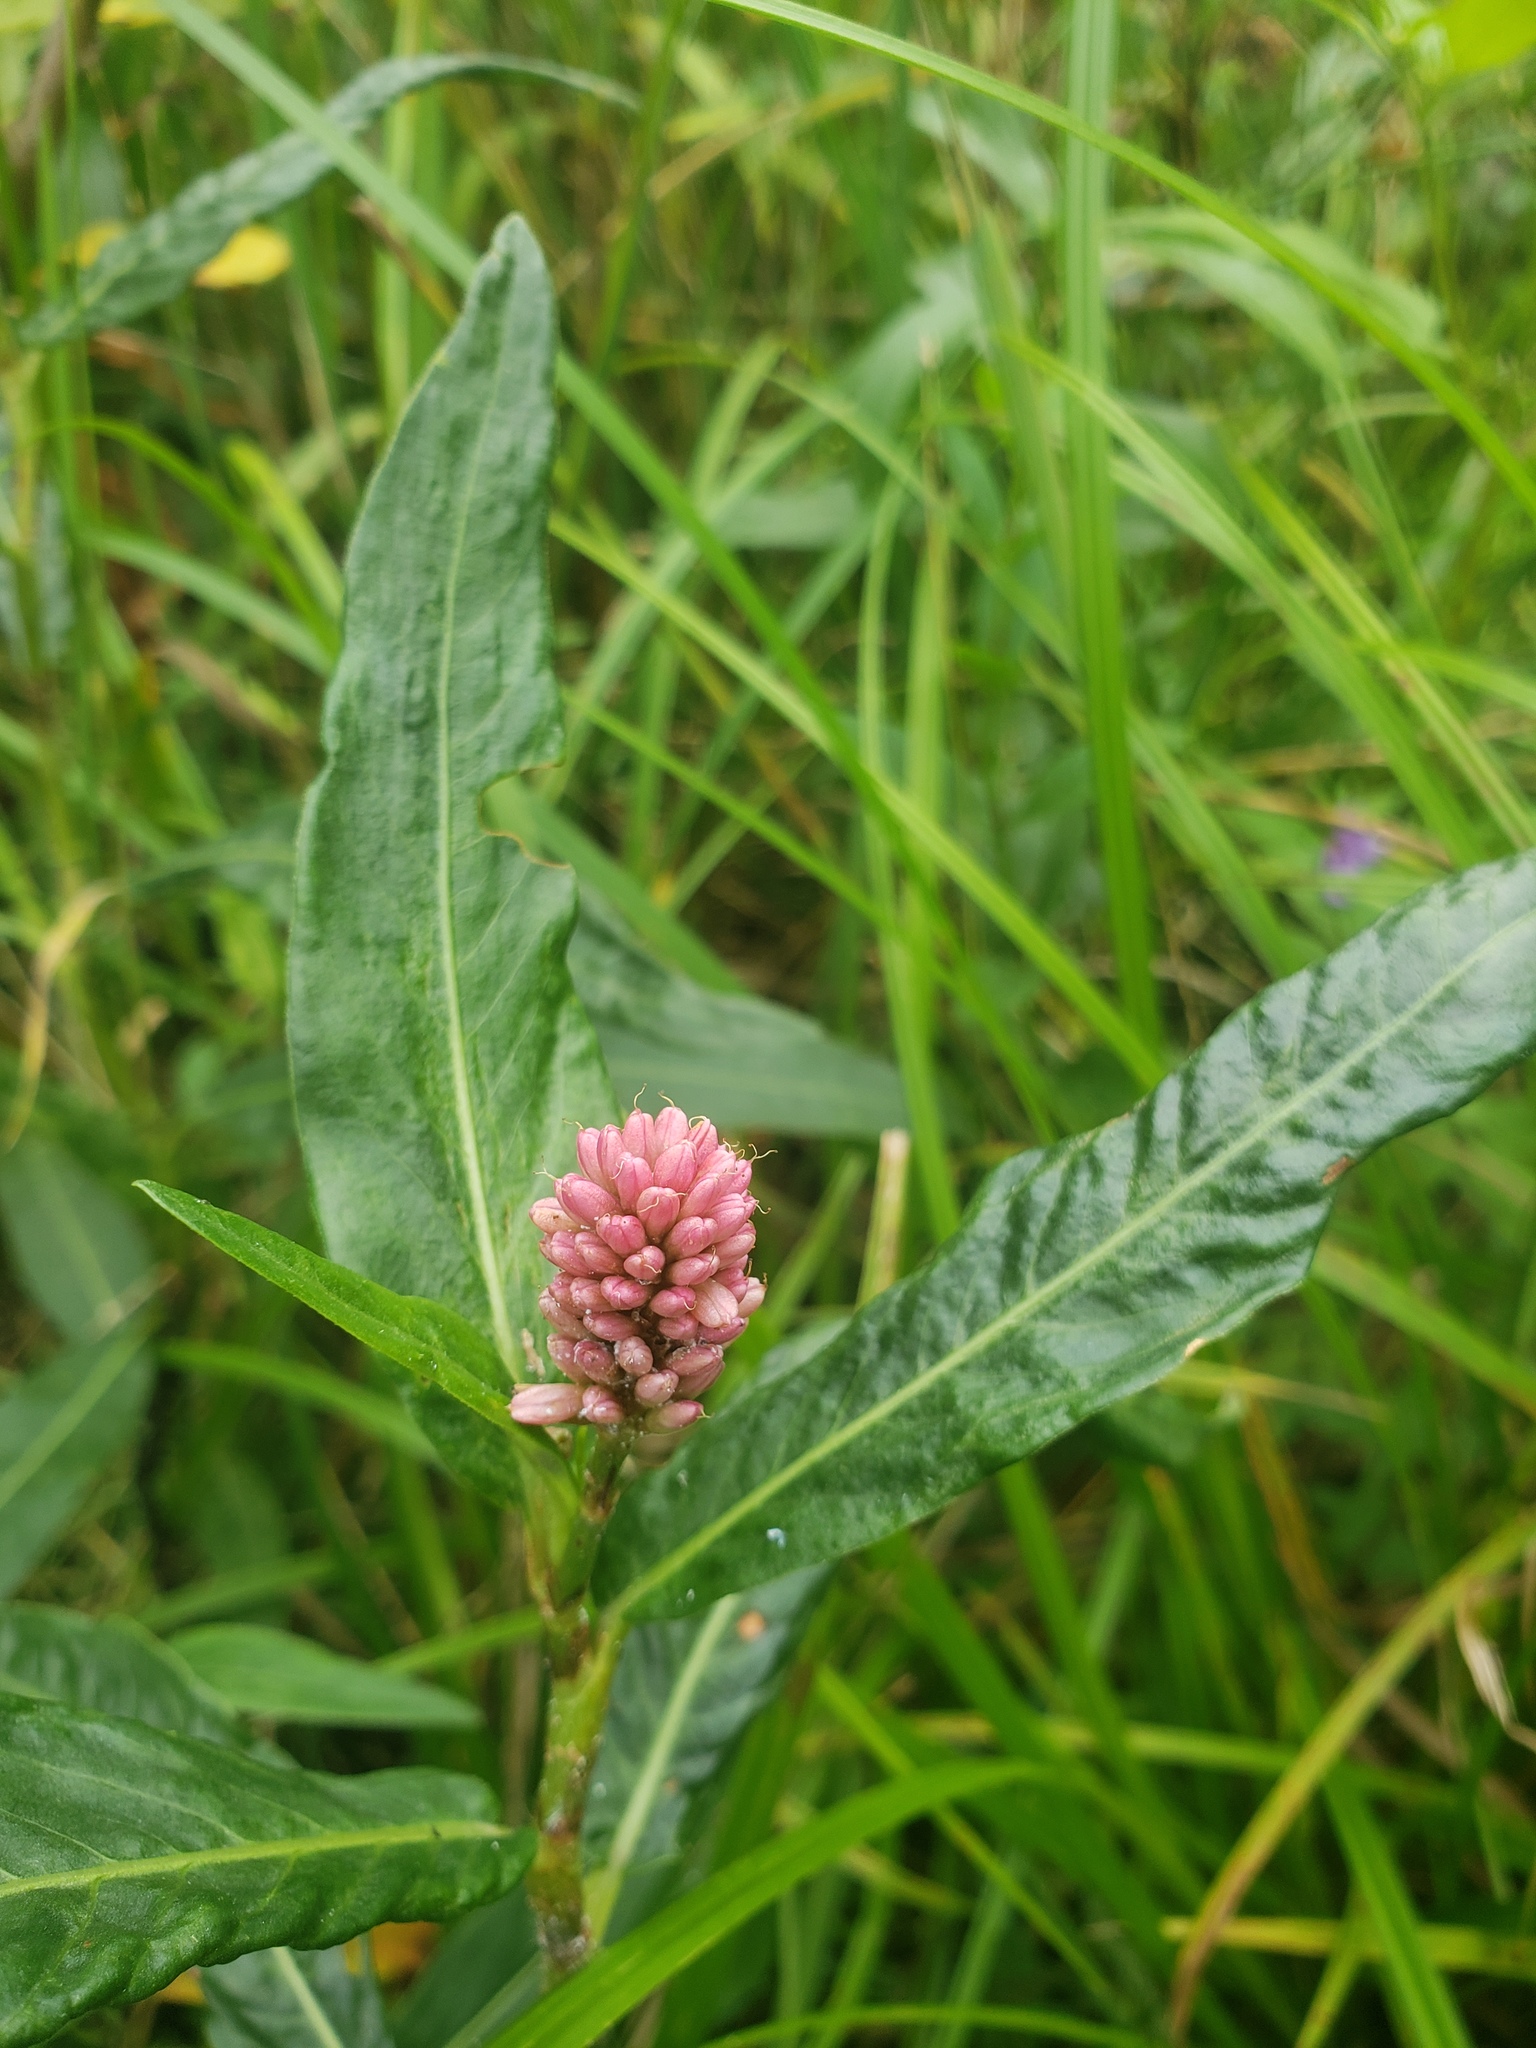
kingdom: Plantae
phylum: Tracheophyta
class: Magnoliopsida
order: Caryophyllales
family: Polygonaceae
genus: Persicaria
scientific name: Persicaria amphibia
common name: Amphibious bistort
